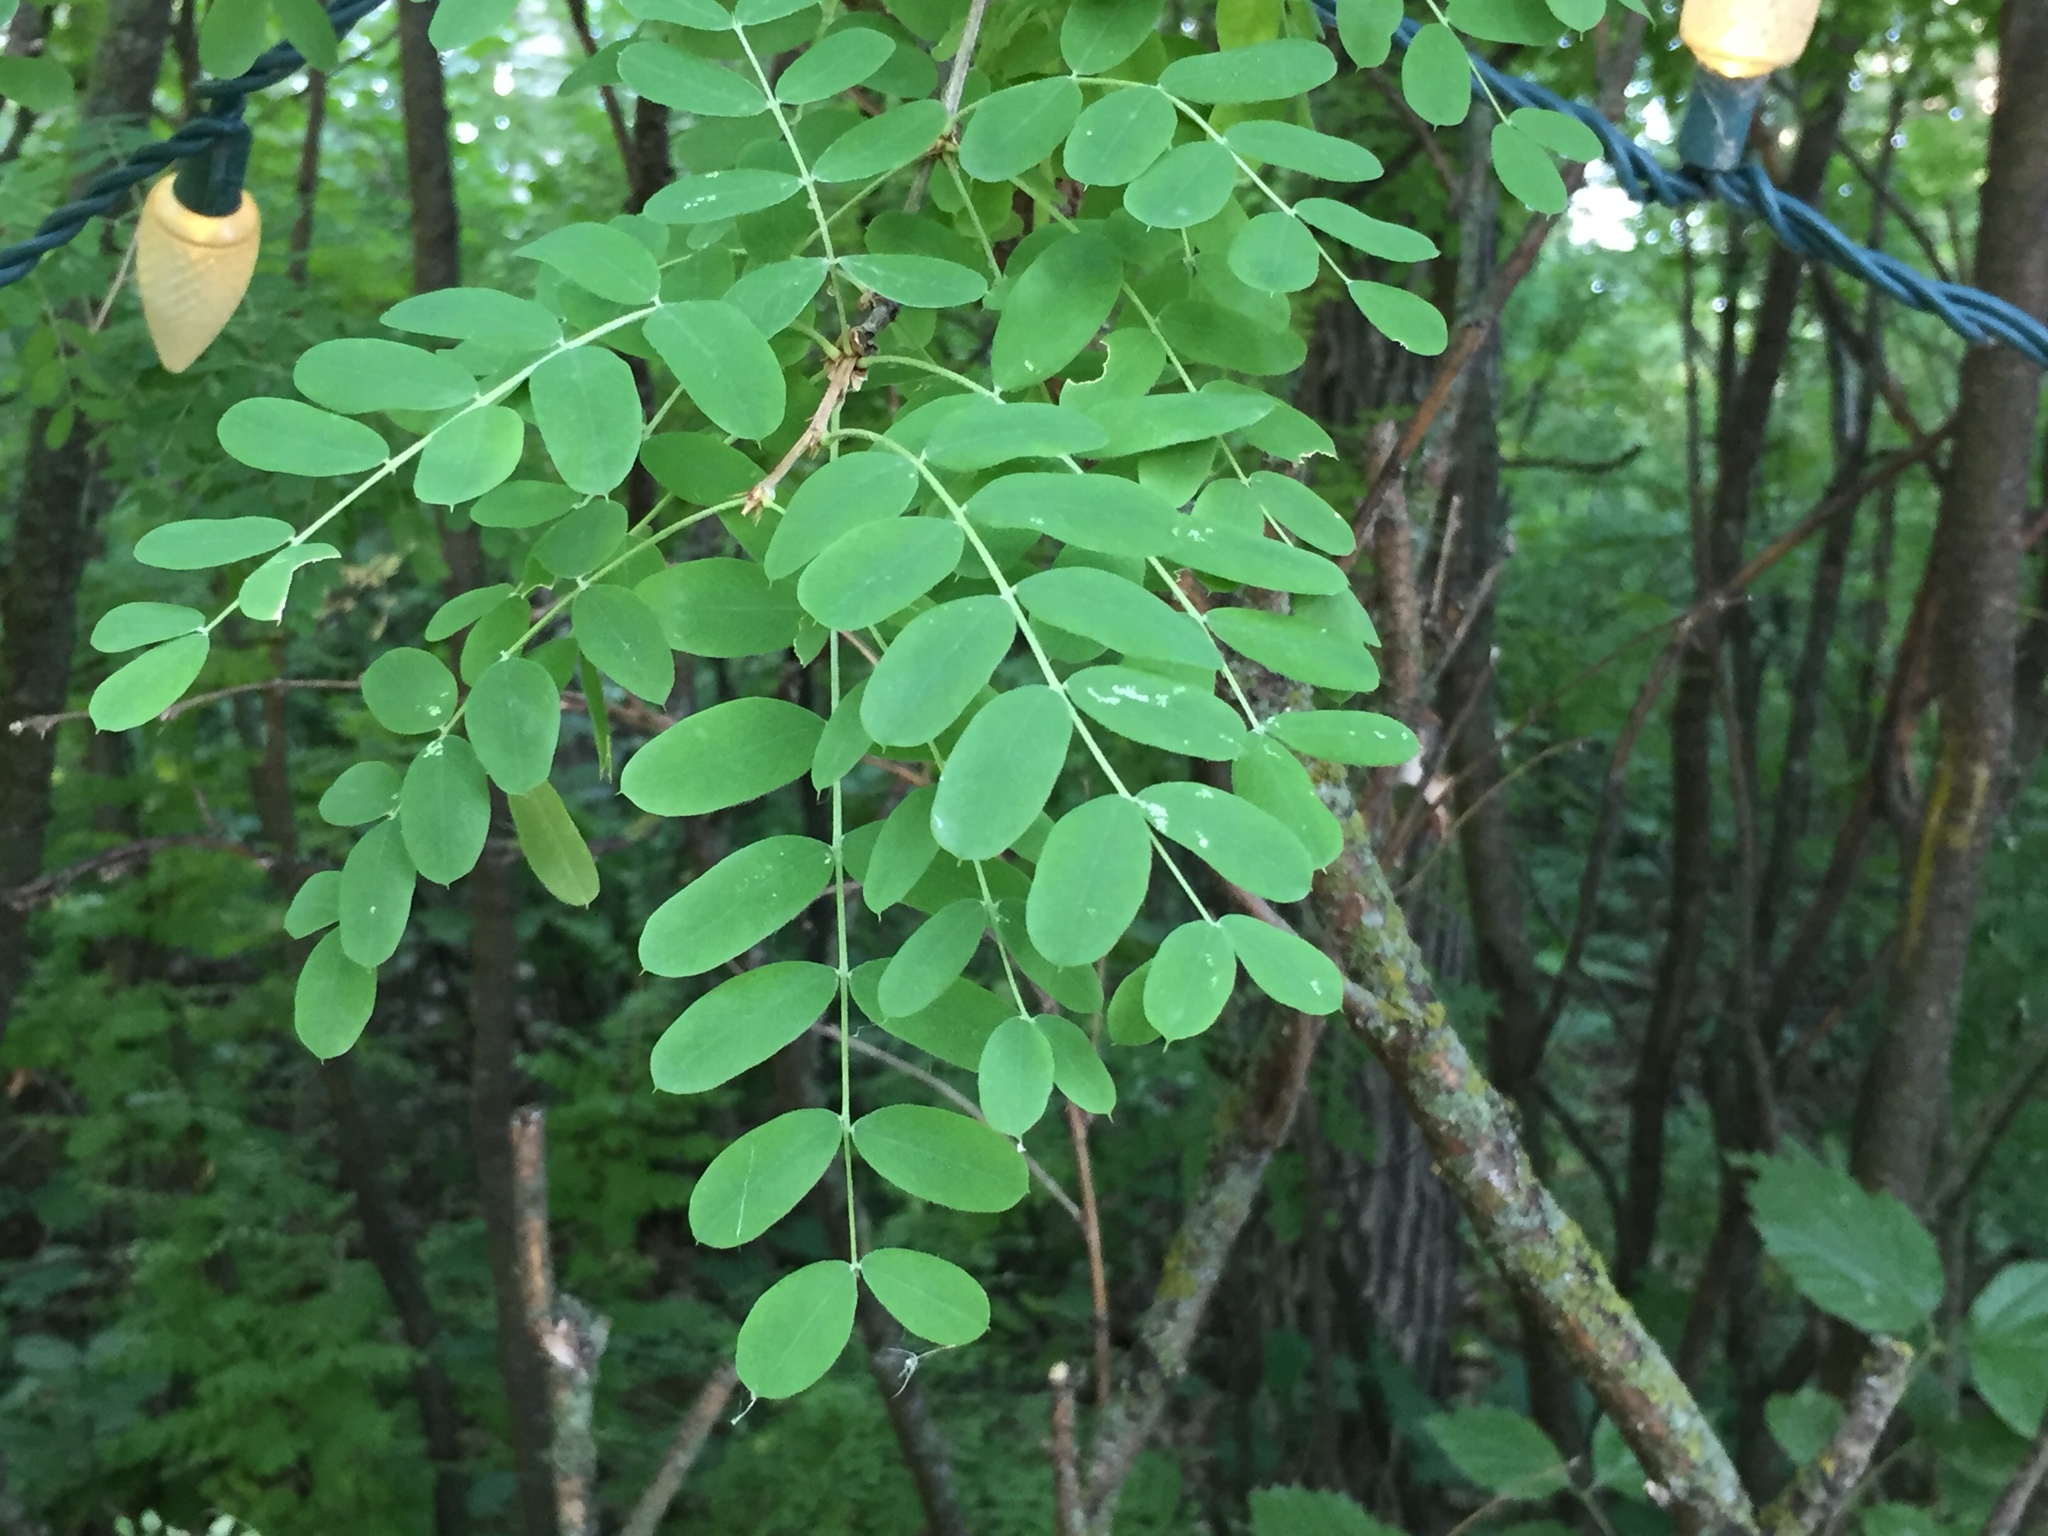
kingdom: Plantae
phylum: Tracheophyta
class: Magnoliopsida
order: Fabales
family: Fabaceae
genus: Caragana
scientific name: Caragana arborescens
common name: Siberian peashrub
